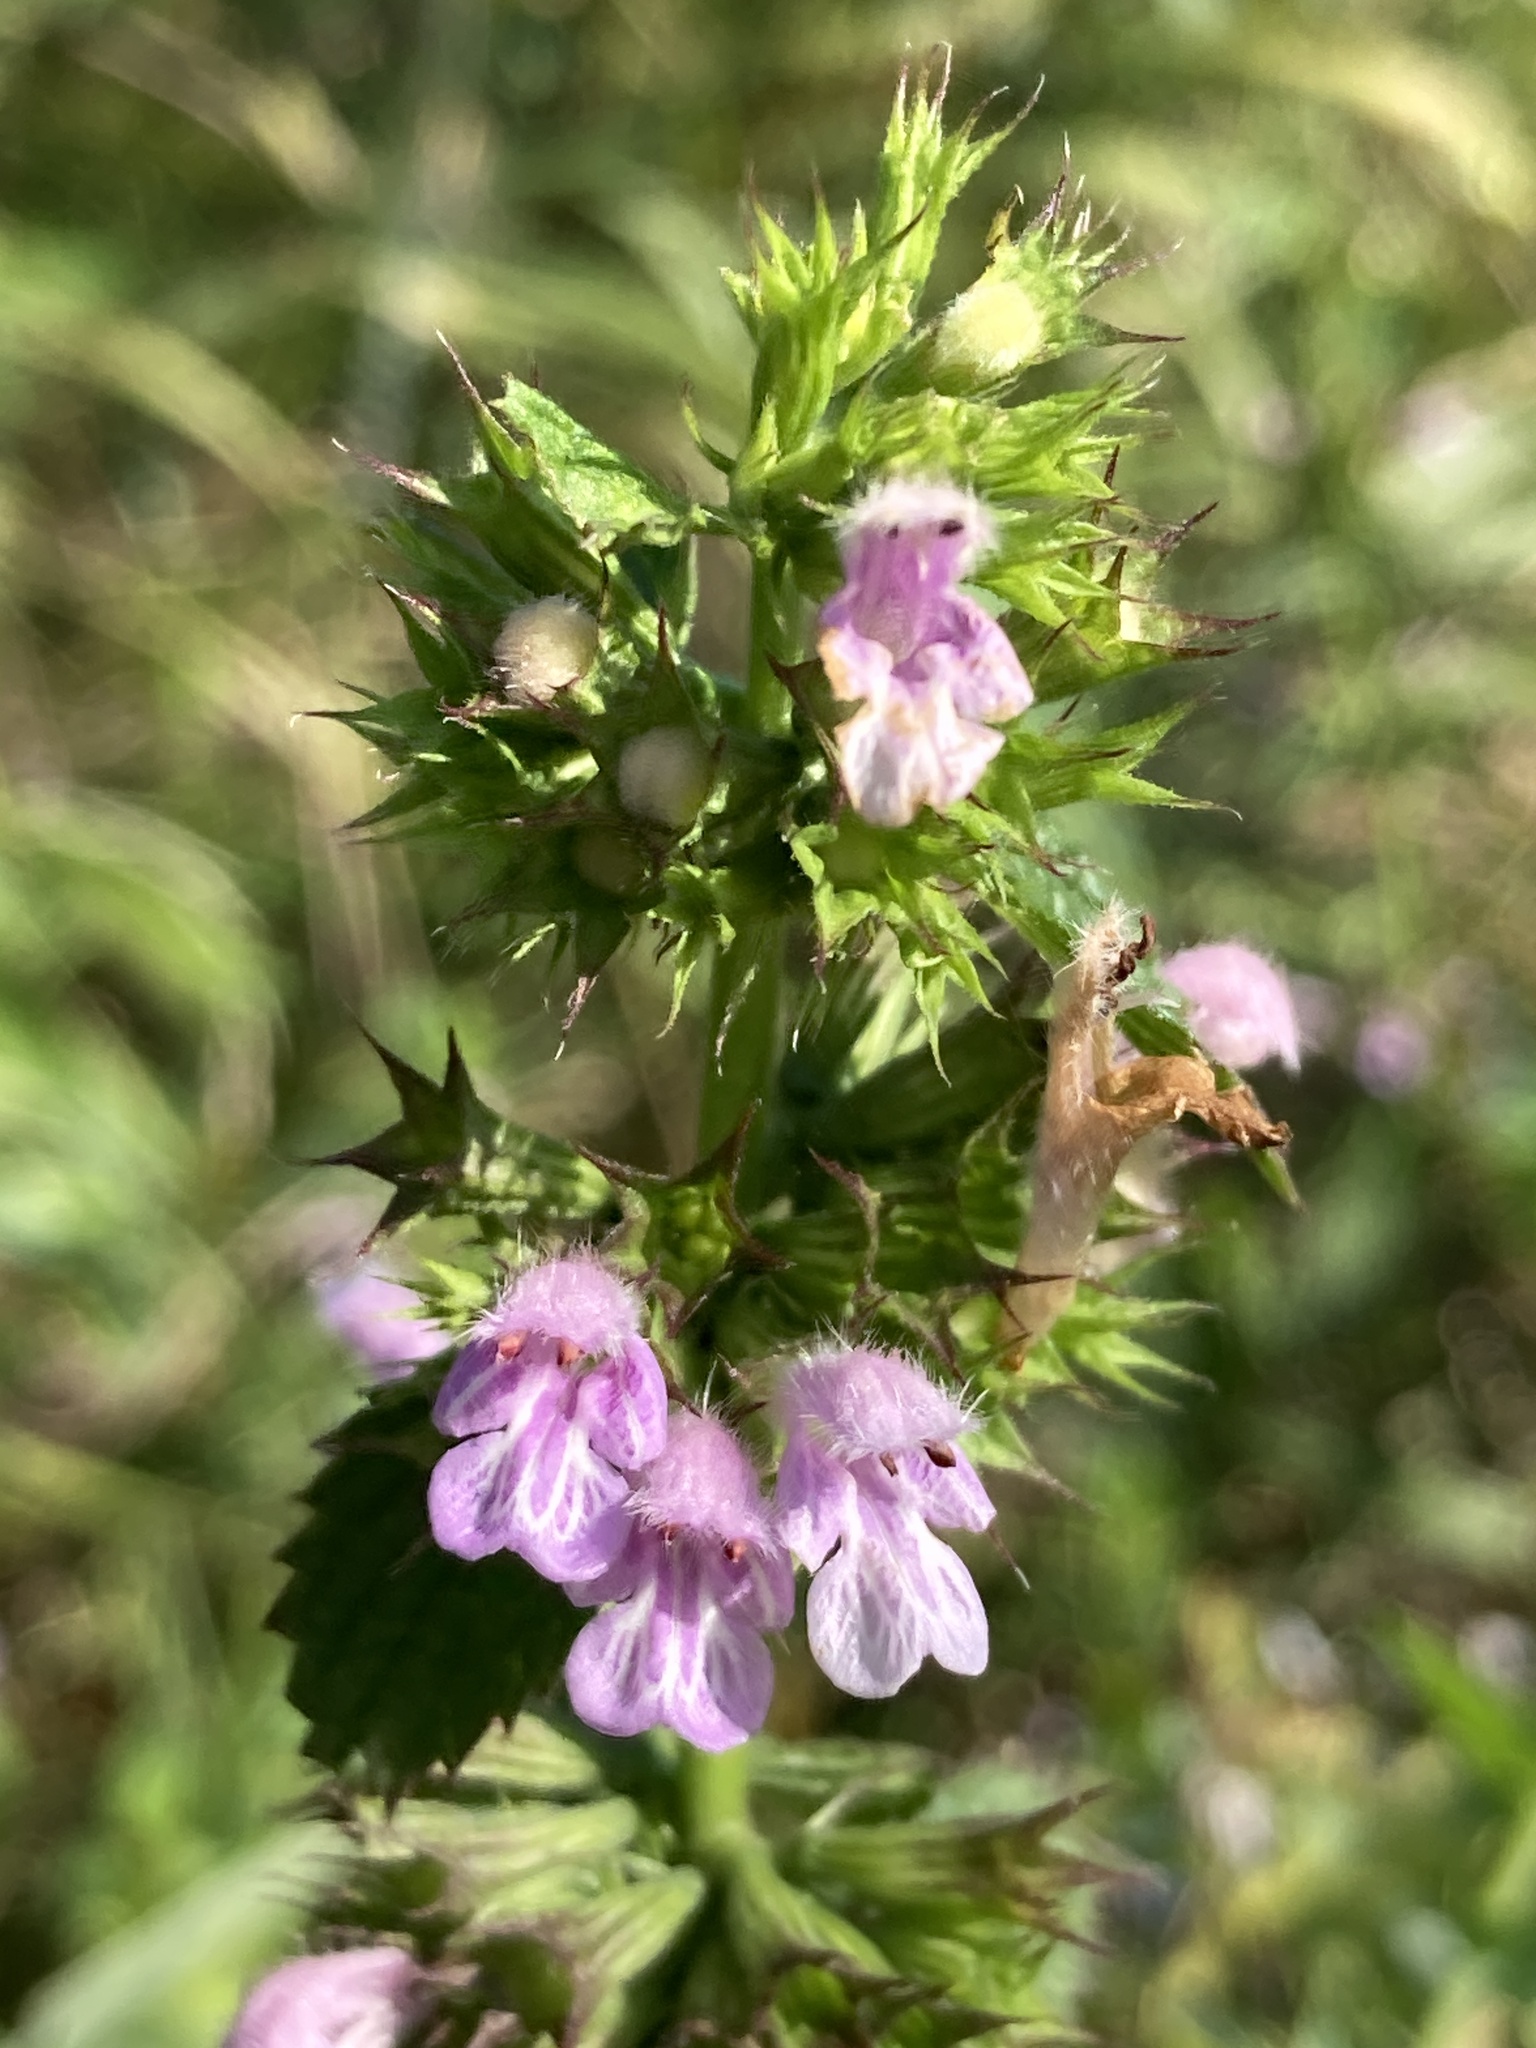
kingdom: Plantae
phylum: Tracheophyta
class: Magnoliopsida
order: Lamiales
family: Lamiaceae
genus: Ballota
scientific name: Ballota nigra
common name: Black horehound
